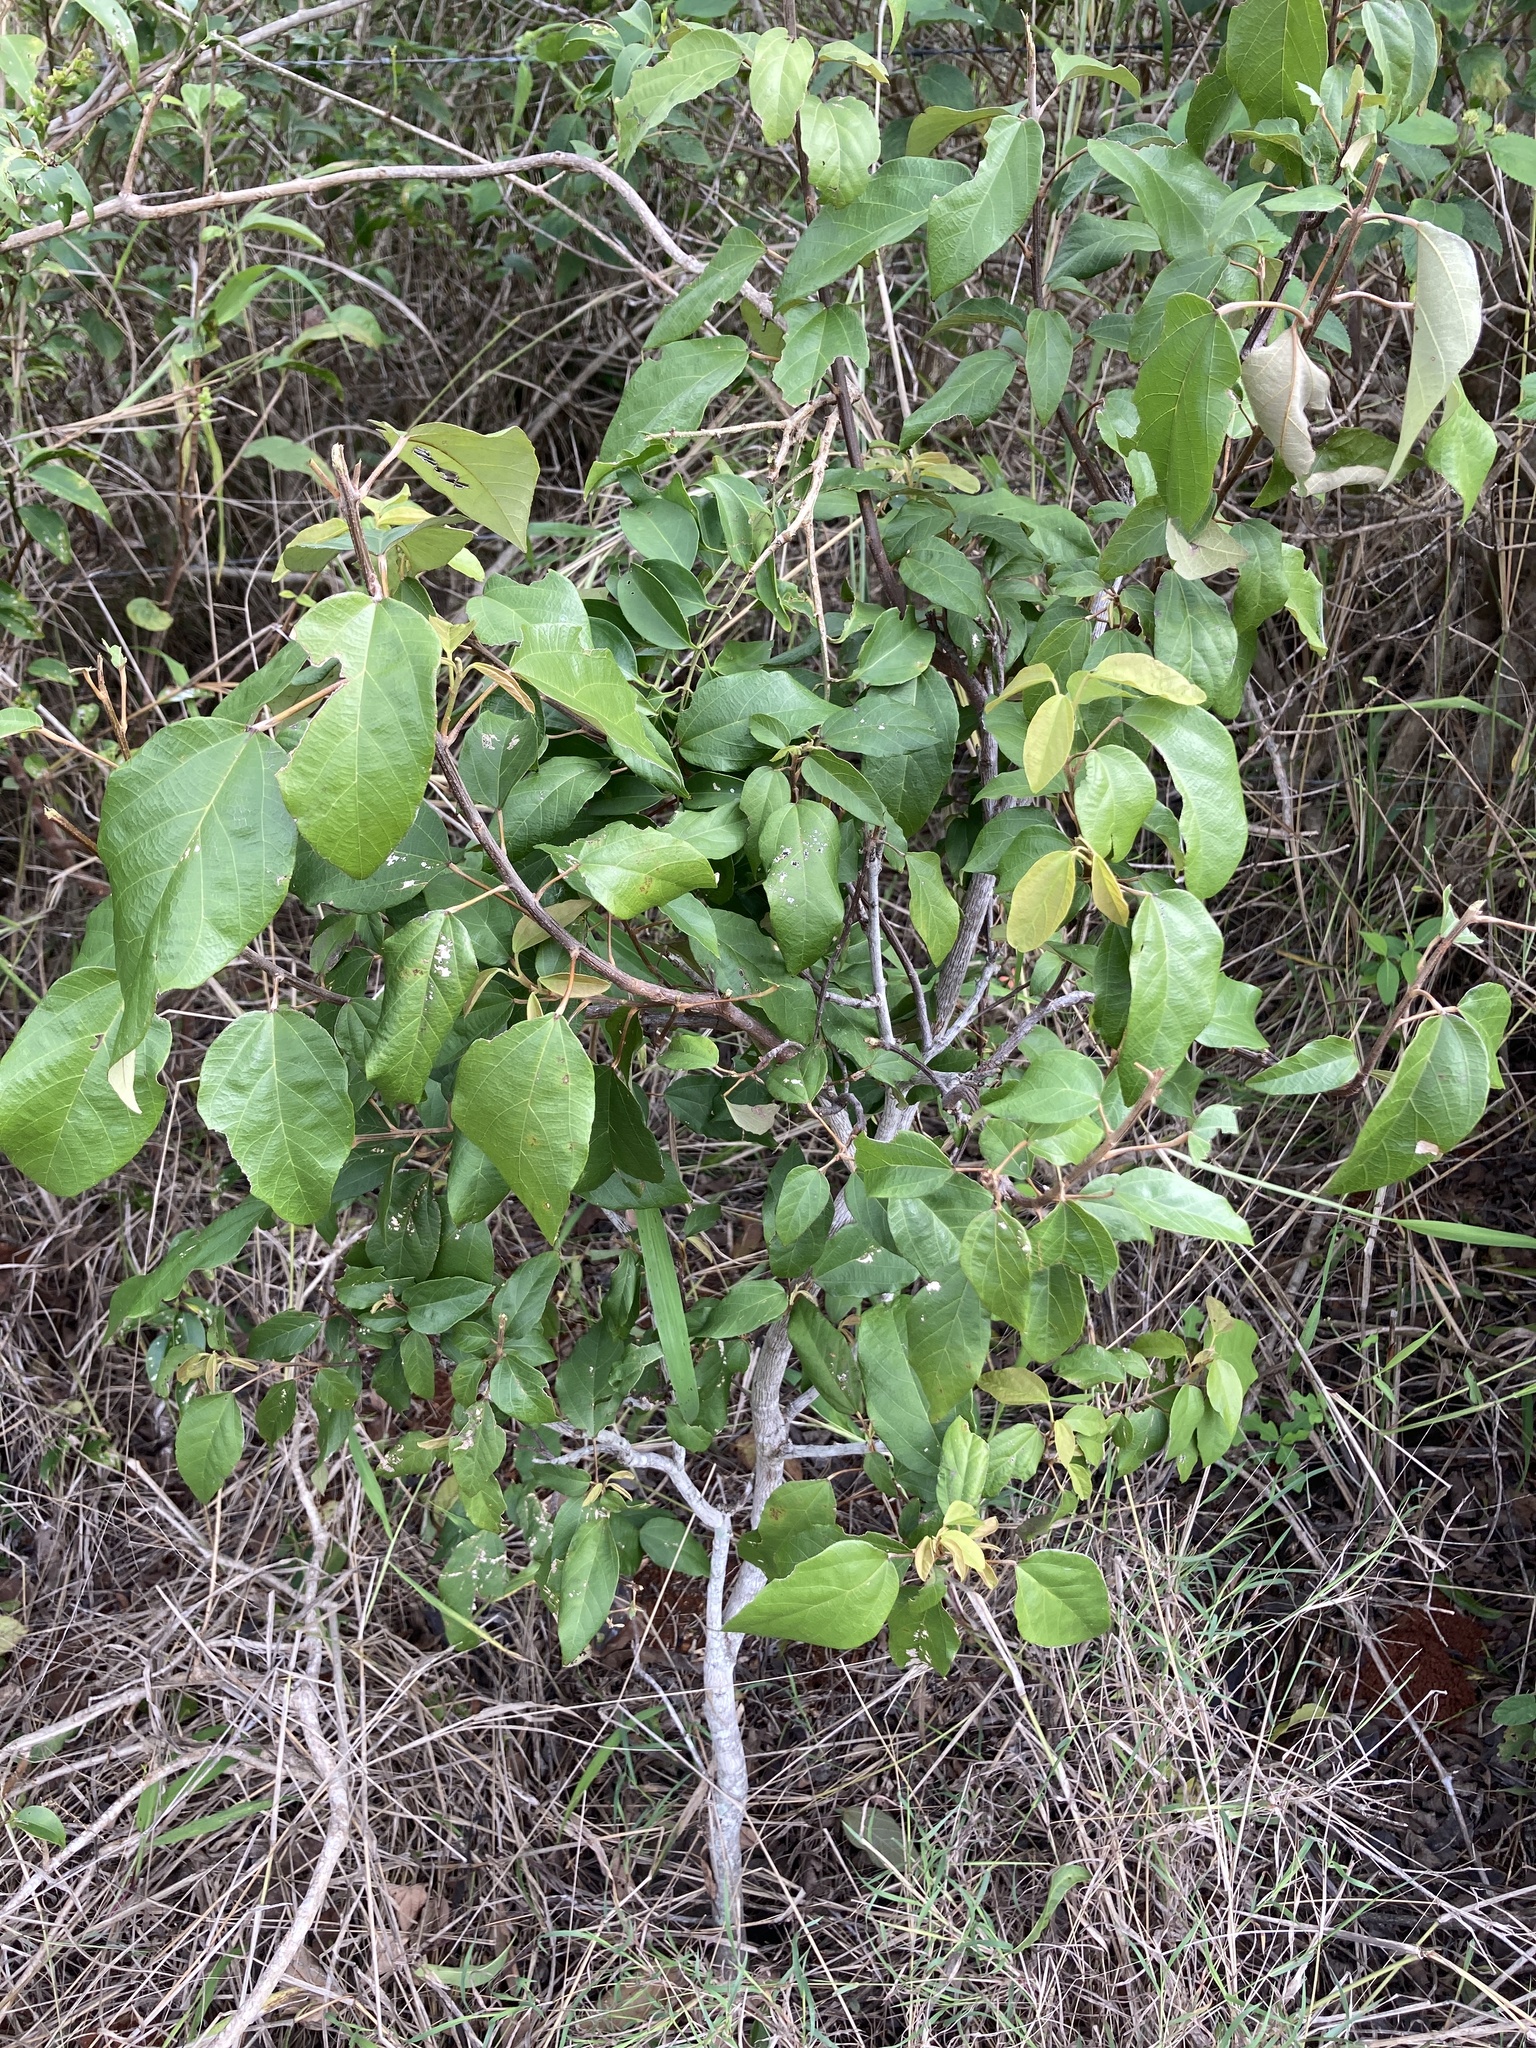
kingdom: Plantae
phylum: Tracheophyta
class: Magnoliopsida
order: Malpighiales
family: Euphorbiaceae
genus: Mallotus
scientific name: Mallotus philippensis
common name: Kamala tree
